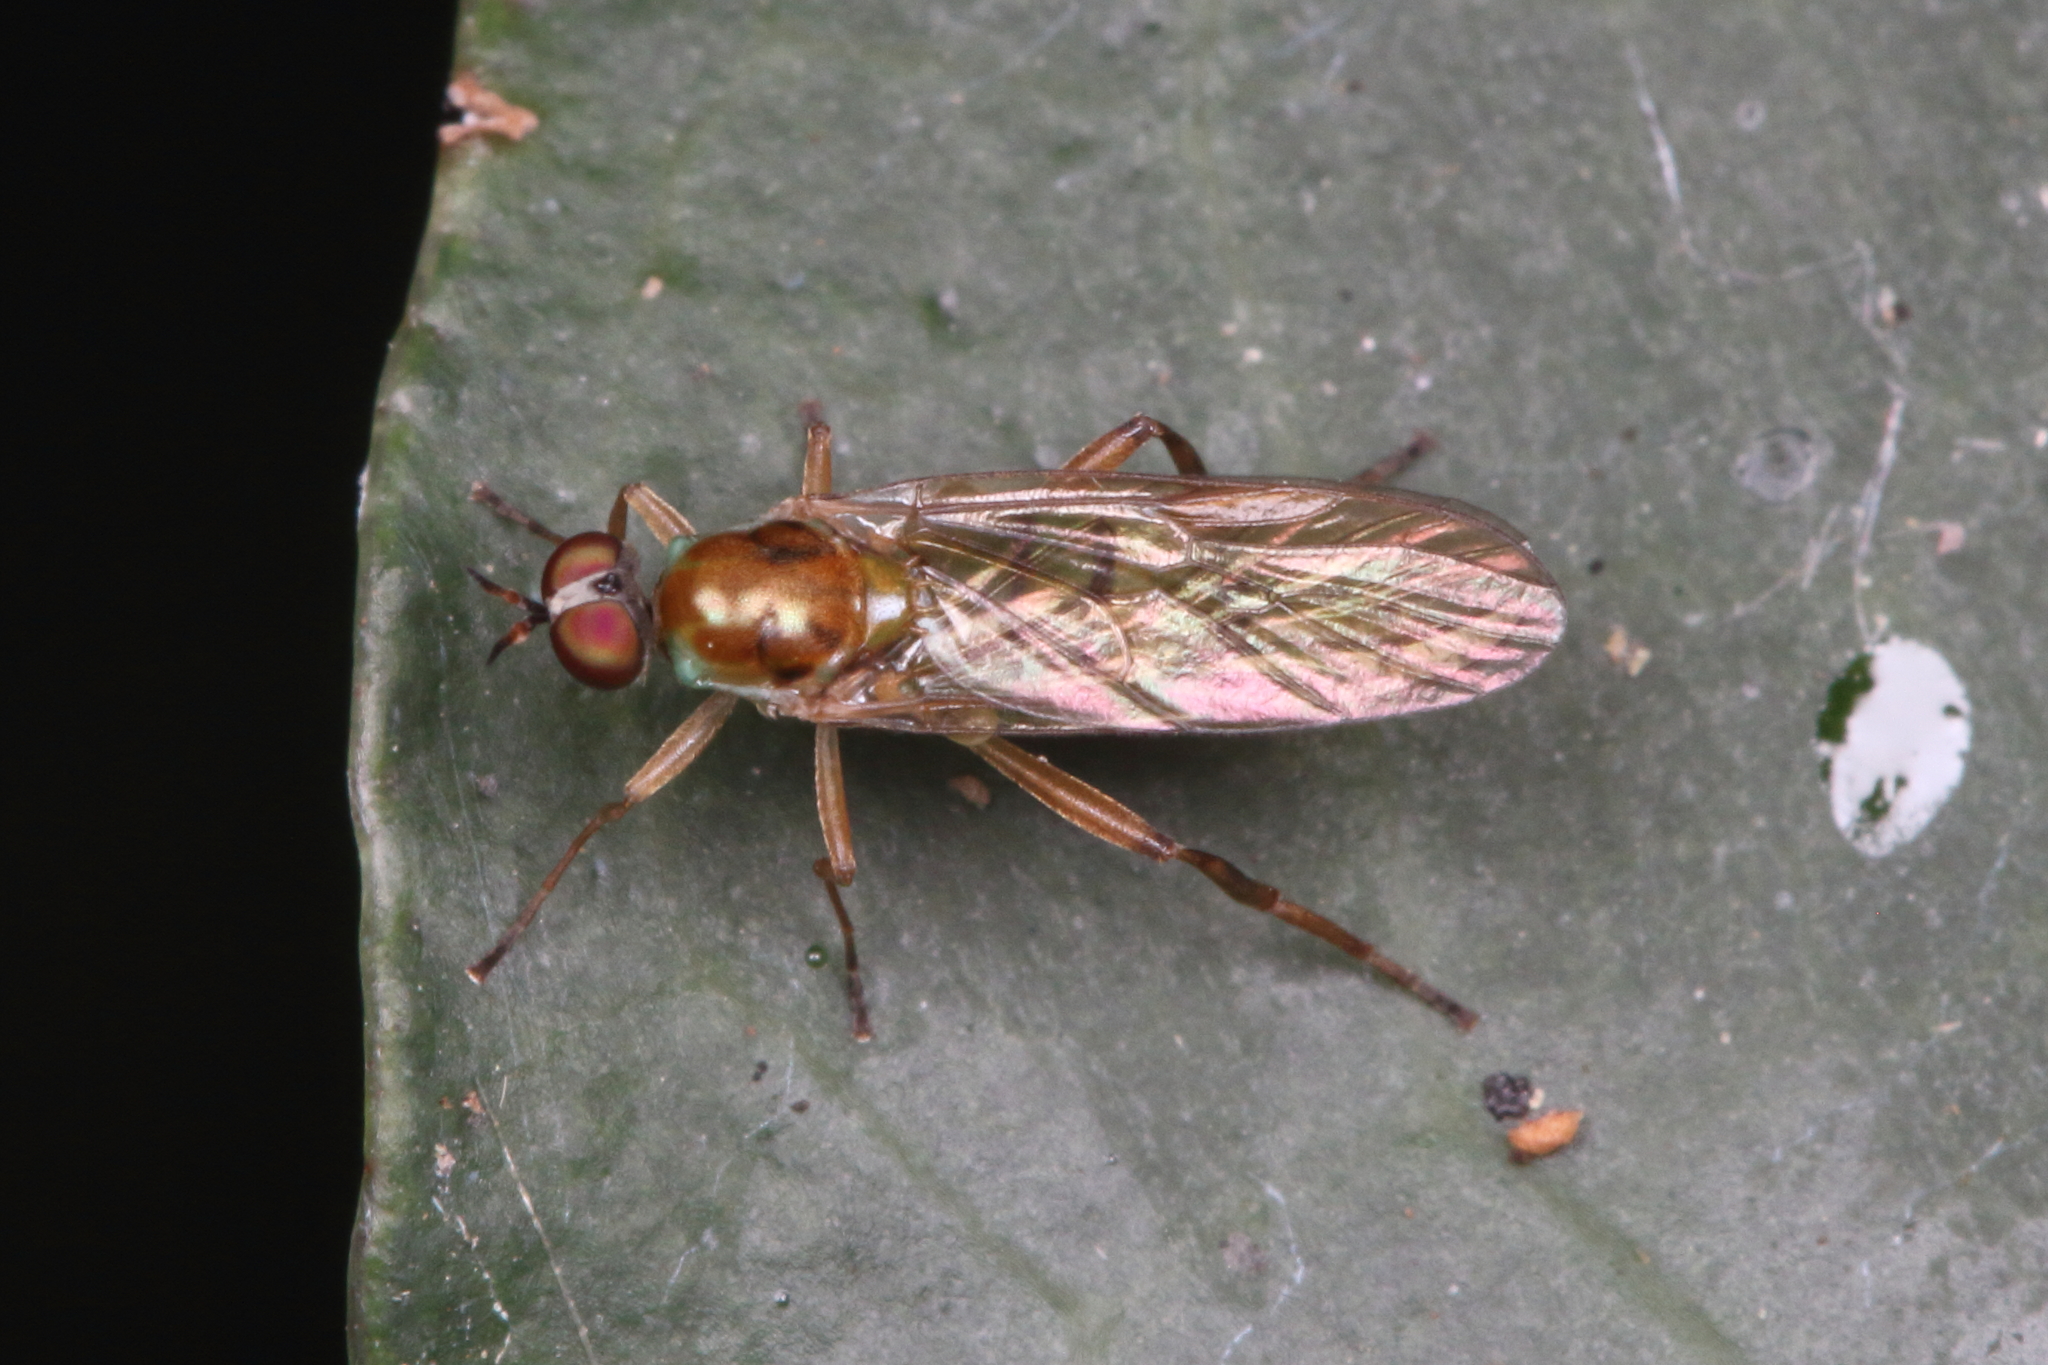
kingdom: Animalia
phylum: Arthropoda
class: Insecta
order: Diptera
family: Stratiomyidae
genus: Australoberis
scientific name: Australoberis refugians
